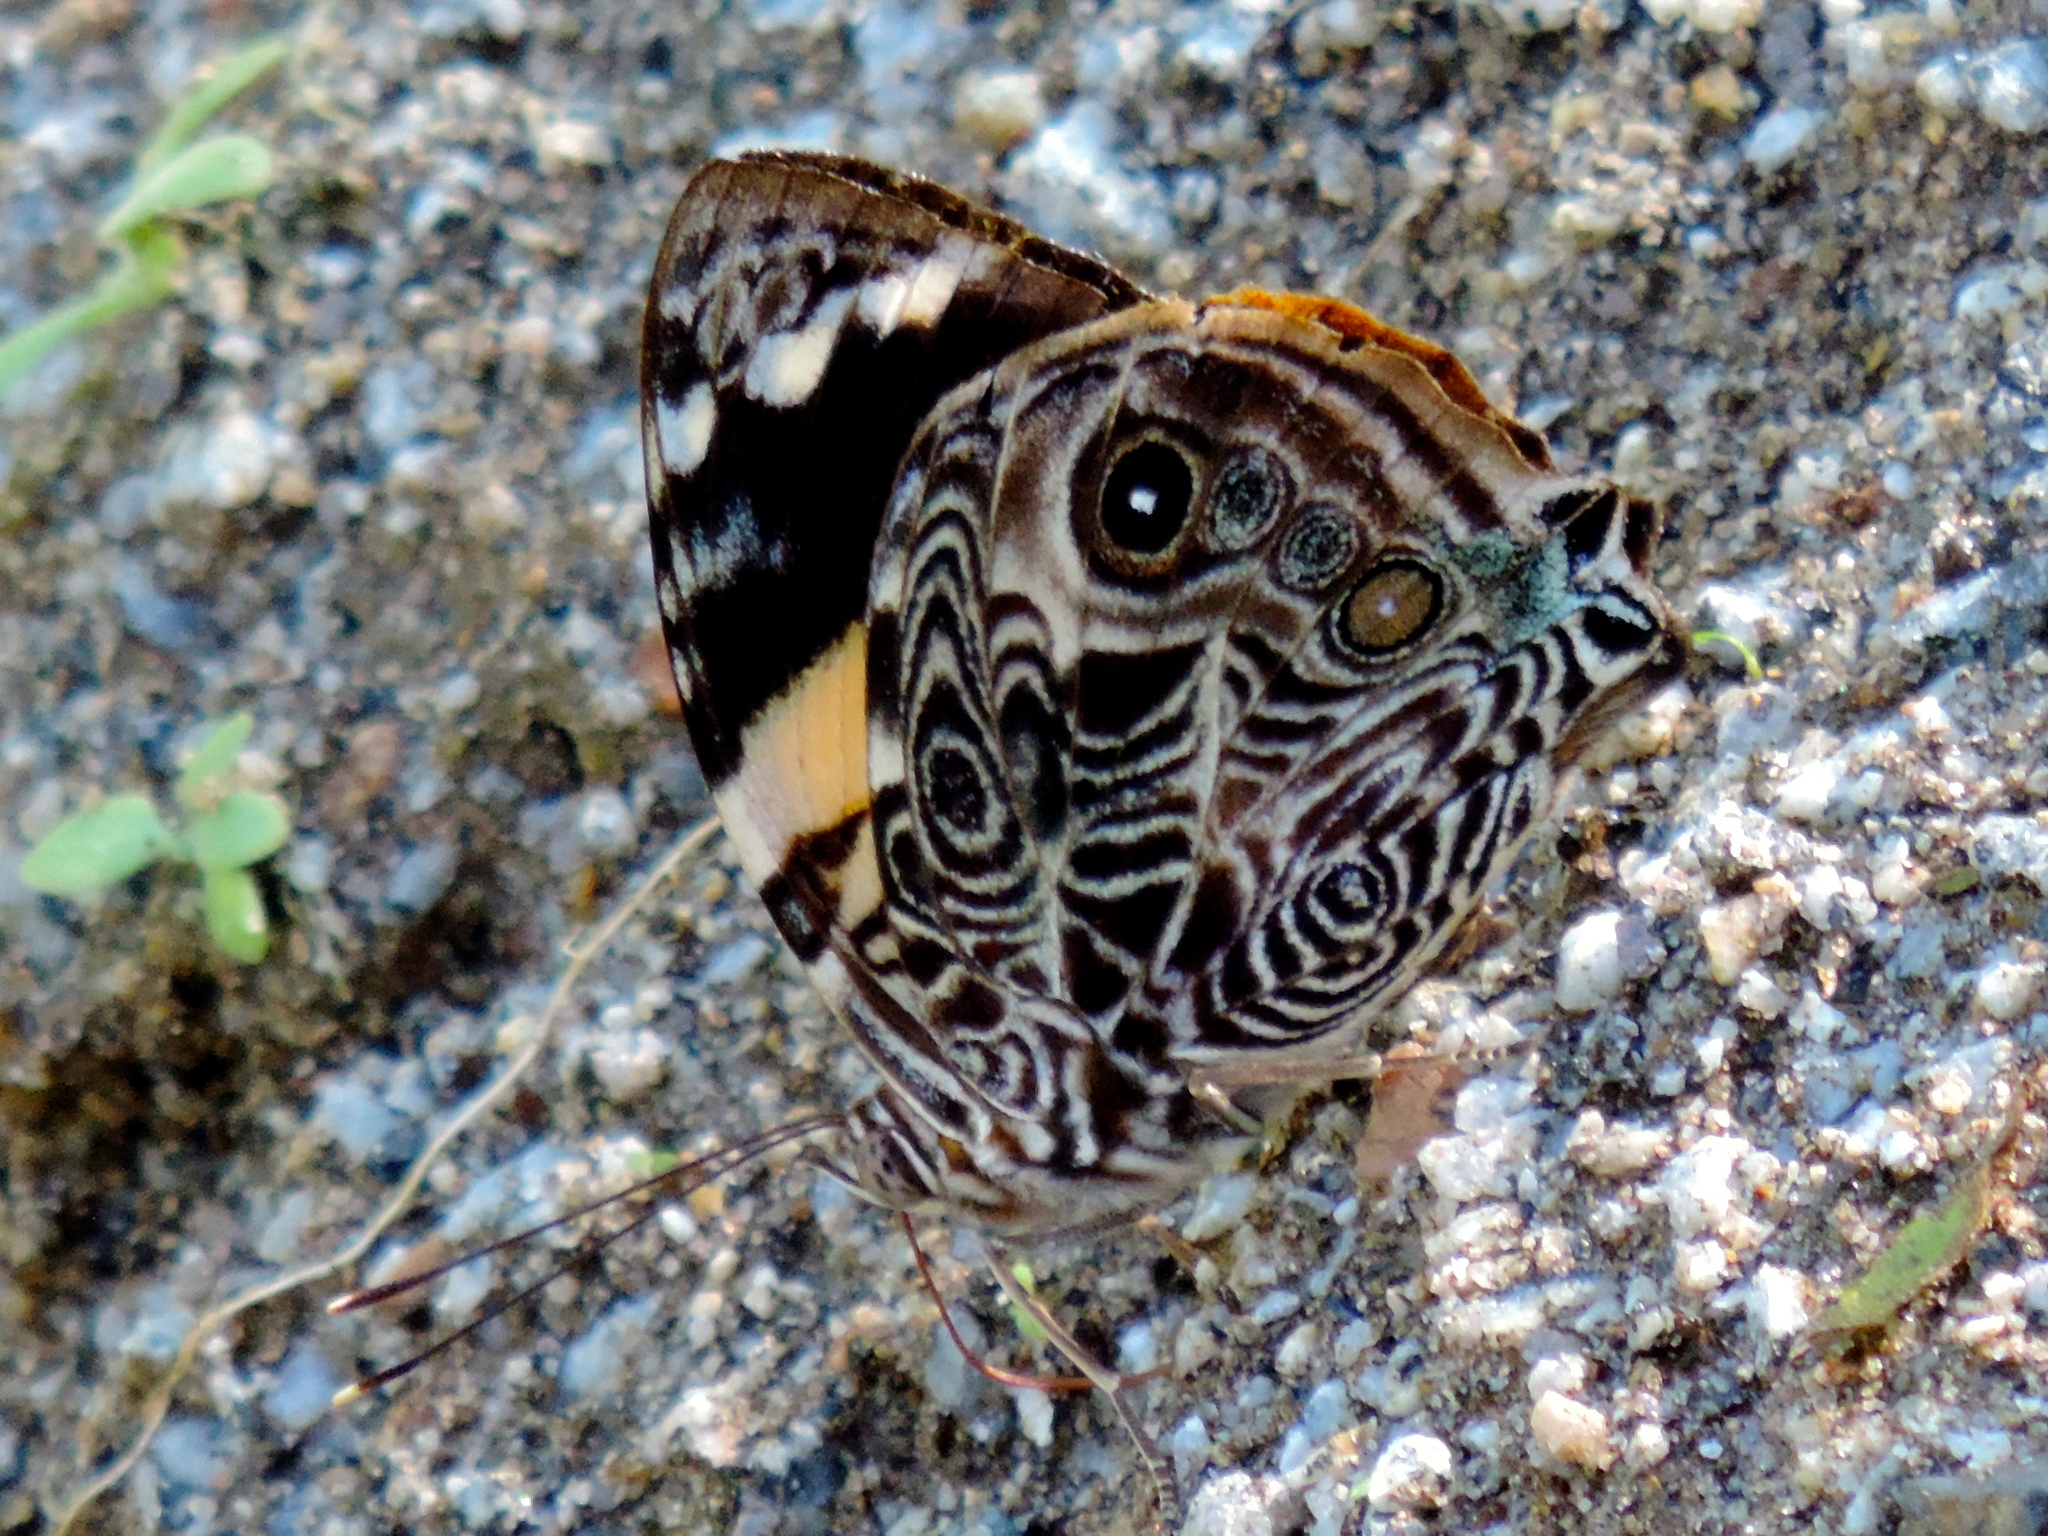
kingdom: Animalia
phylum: Arthropoda
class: Insecta
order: Lepidoptera
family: Nymphalidae
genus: Smyrna
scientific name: Smyrna blomfildia
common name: Blomfild's beauty
